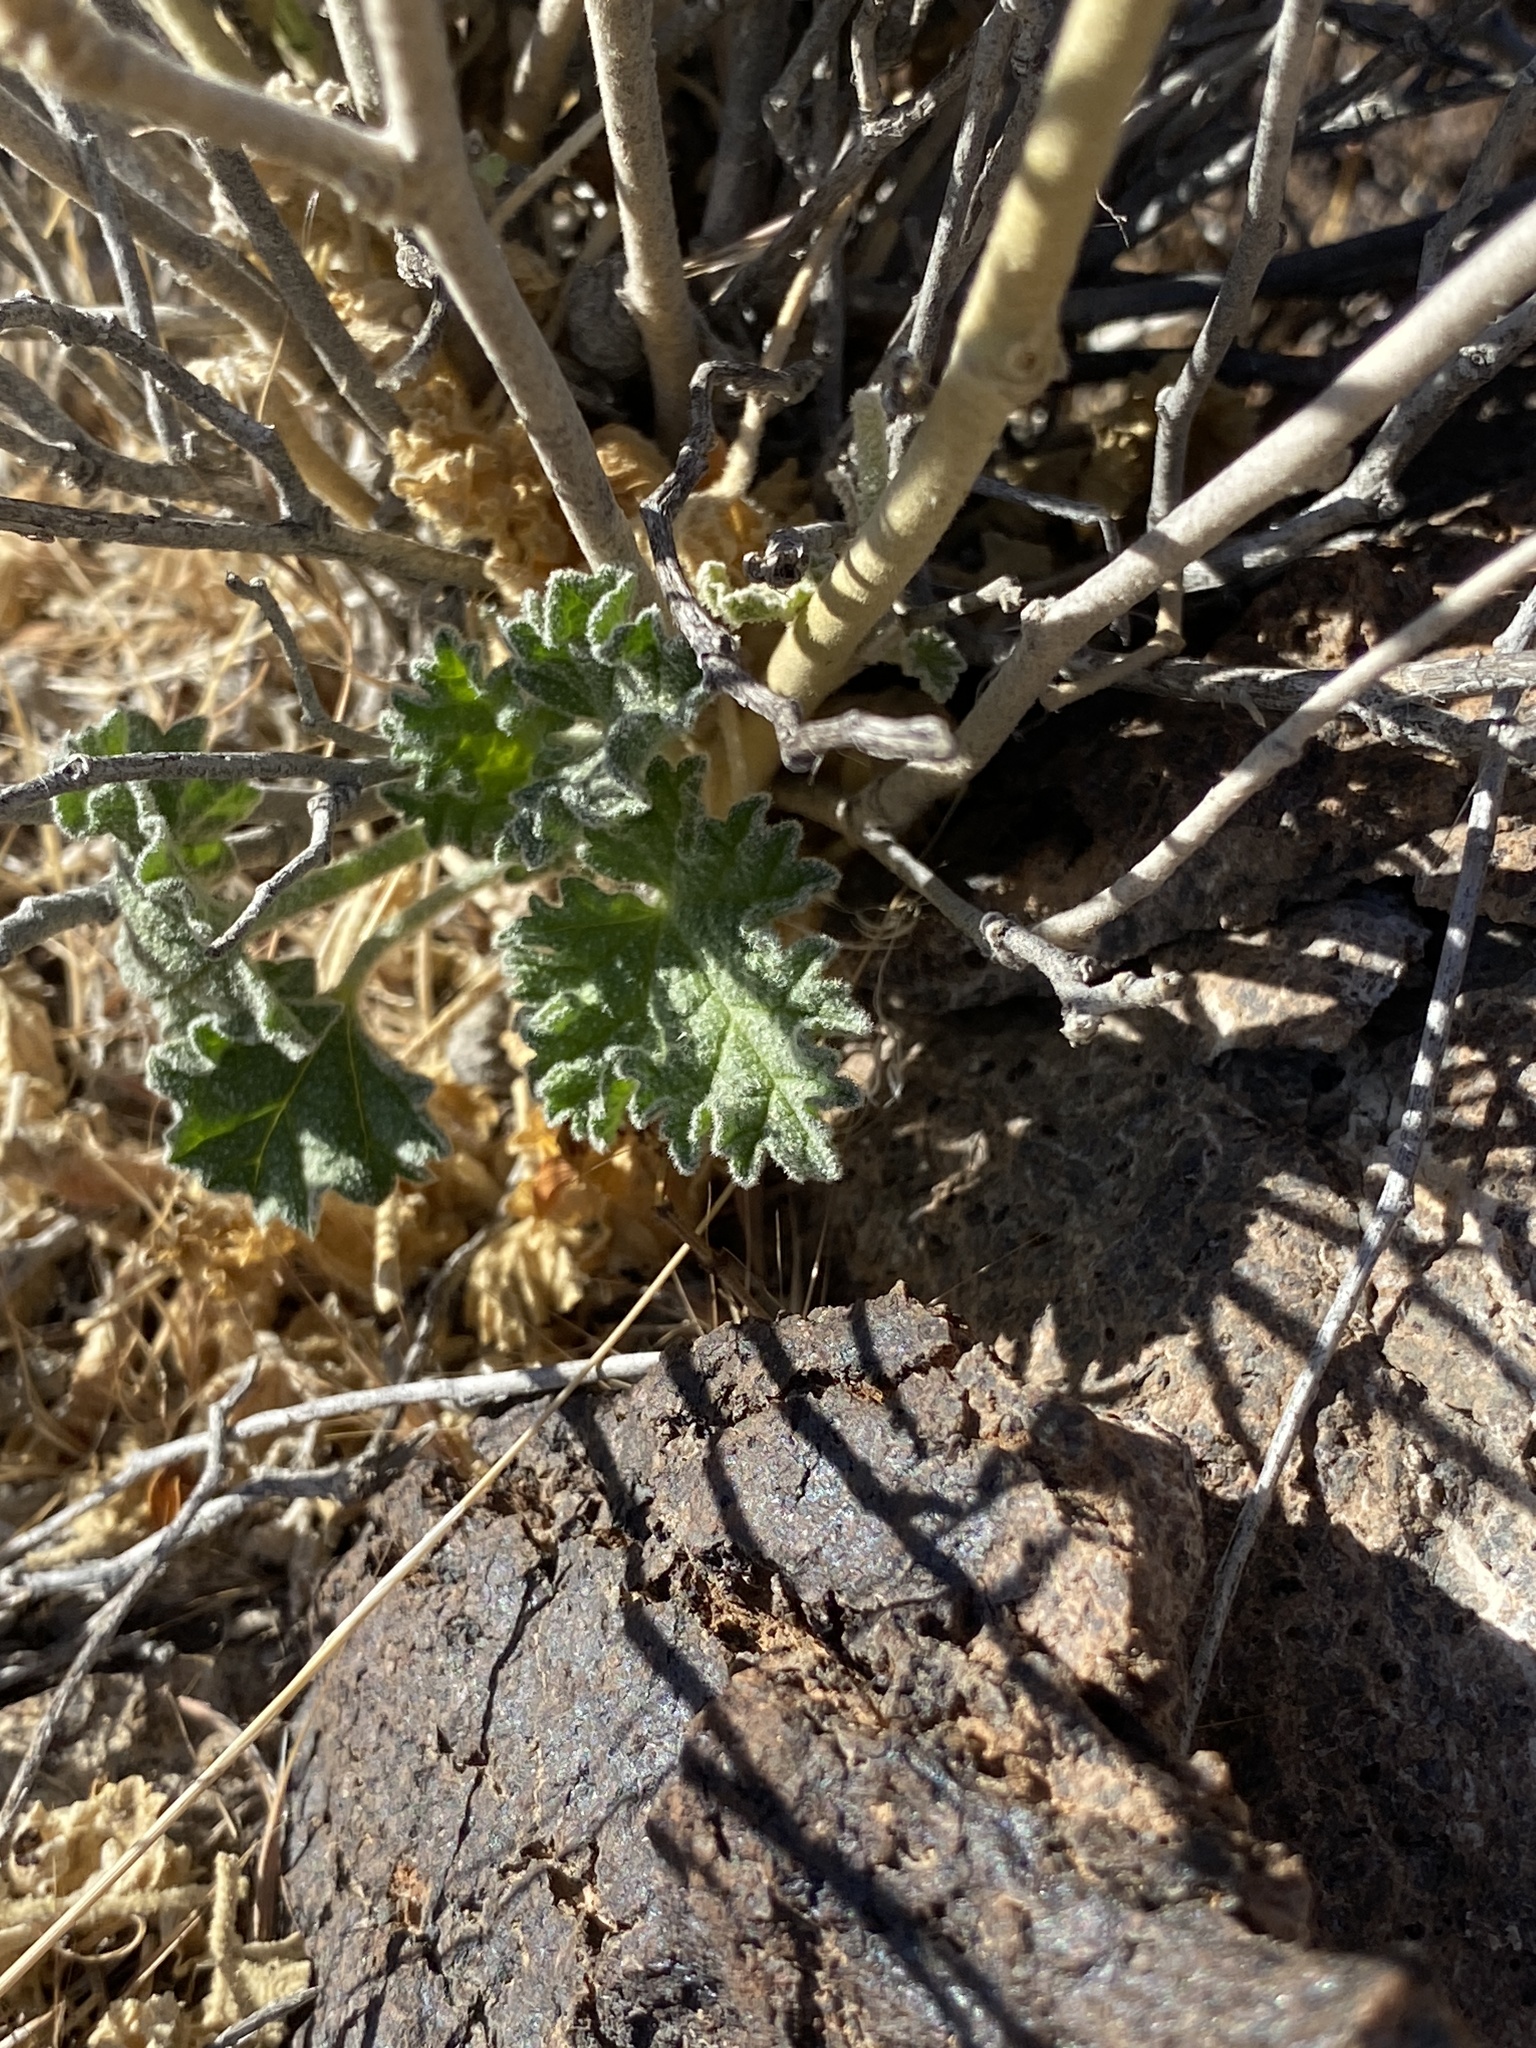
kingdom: Plantae
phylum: Tracheophyta
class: Magnoliopsida
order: Malvales
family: Malvaceae
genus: Sphaeralcea
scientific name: Sphaeralcea ambigua
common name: Apricot globe-mallow
